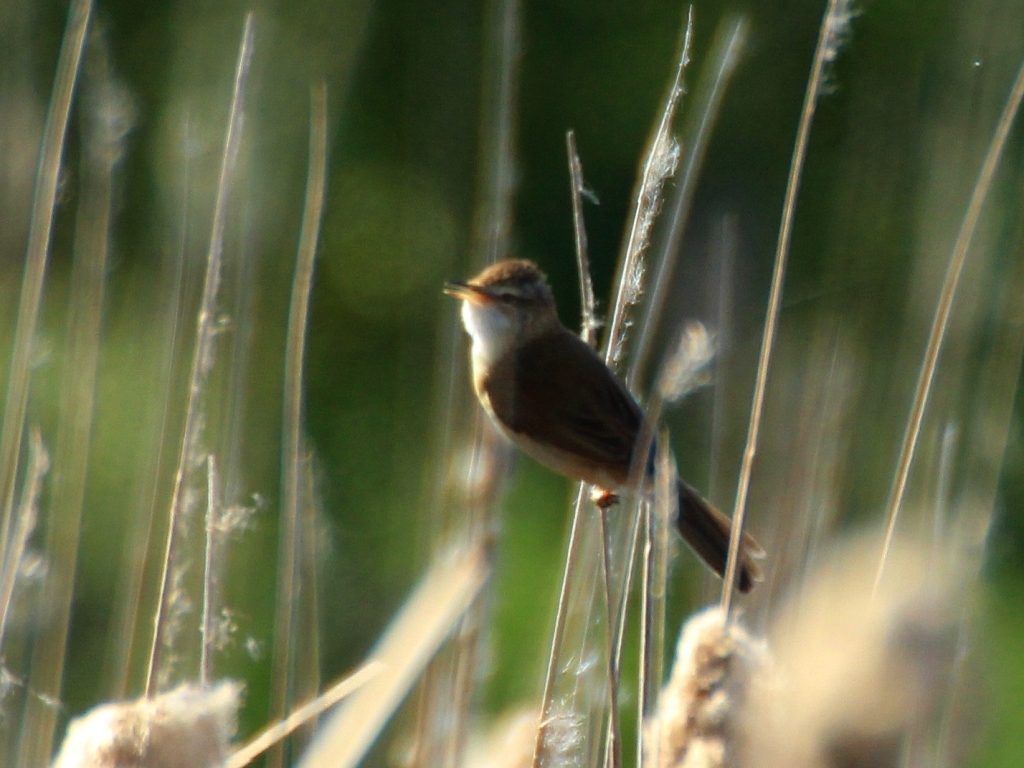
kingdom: Animalia
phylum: Chordata
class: Aves
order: Passeriformes
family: Acrocephalidae
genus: Acrocephalus
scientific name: Acrocephalus agricola
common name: Paddyfield warbler
